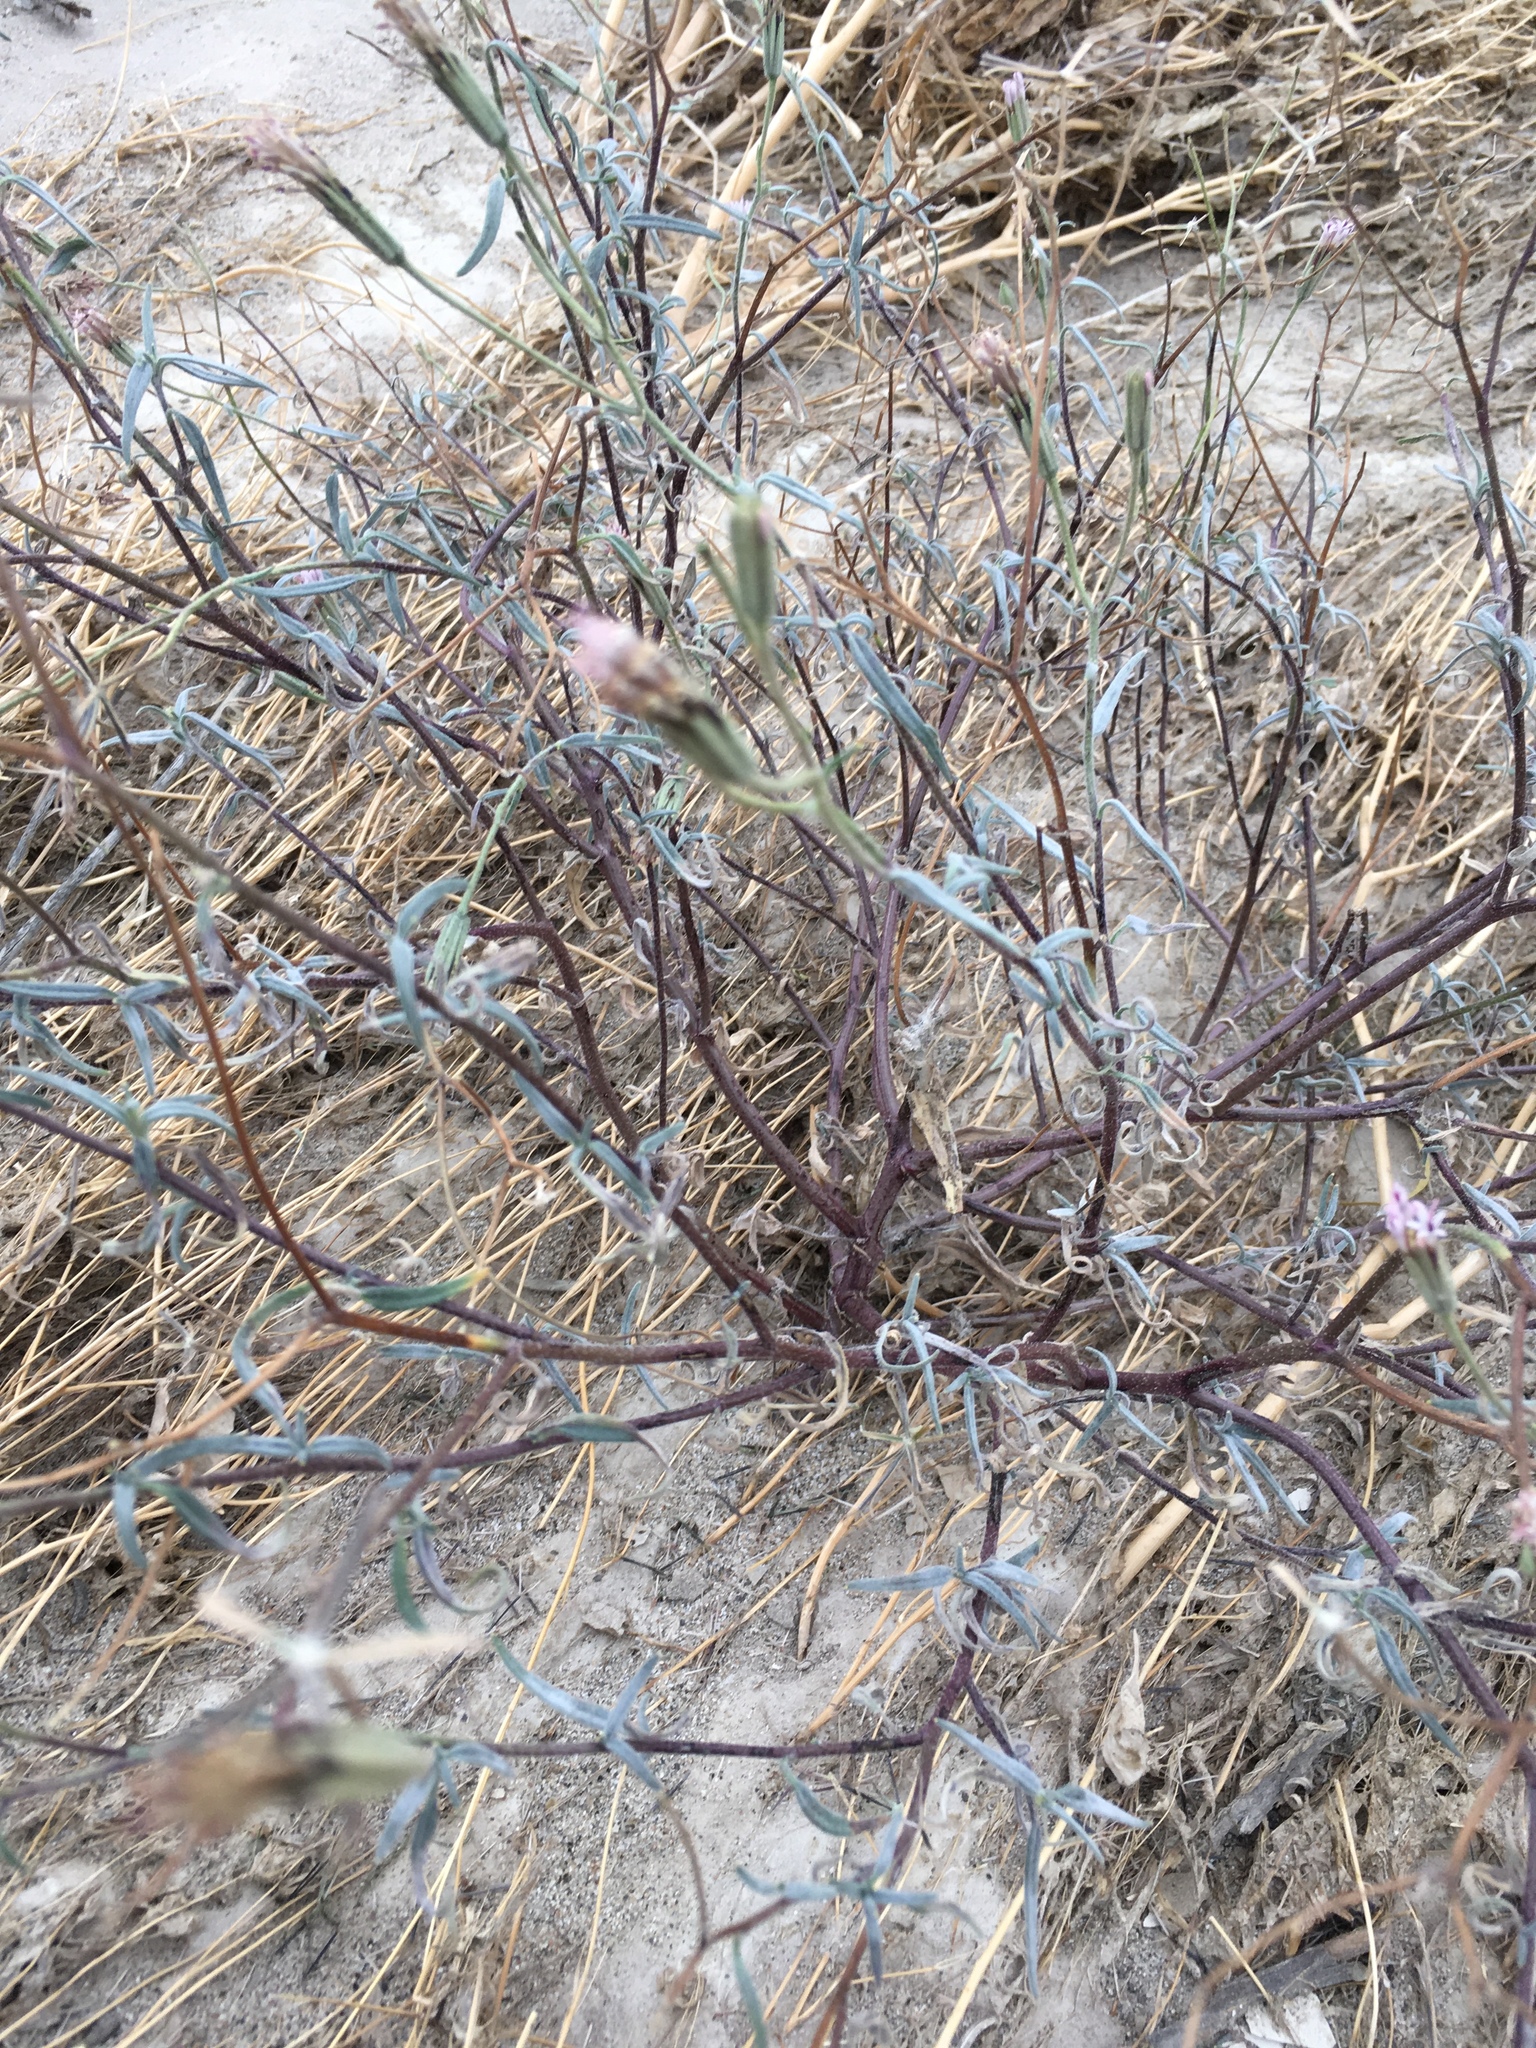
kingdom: Plantae
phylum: Tracheophyta
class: Magnoliopsida
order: Asterales
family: Asteraceae
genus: Palafoxia
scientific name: Palafoxia arida
